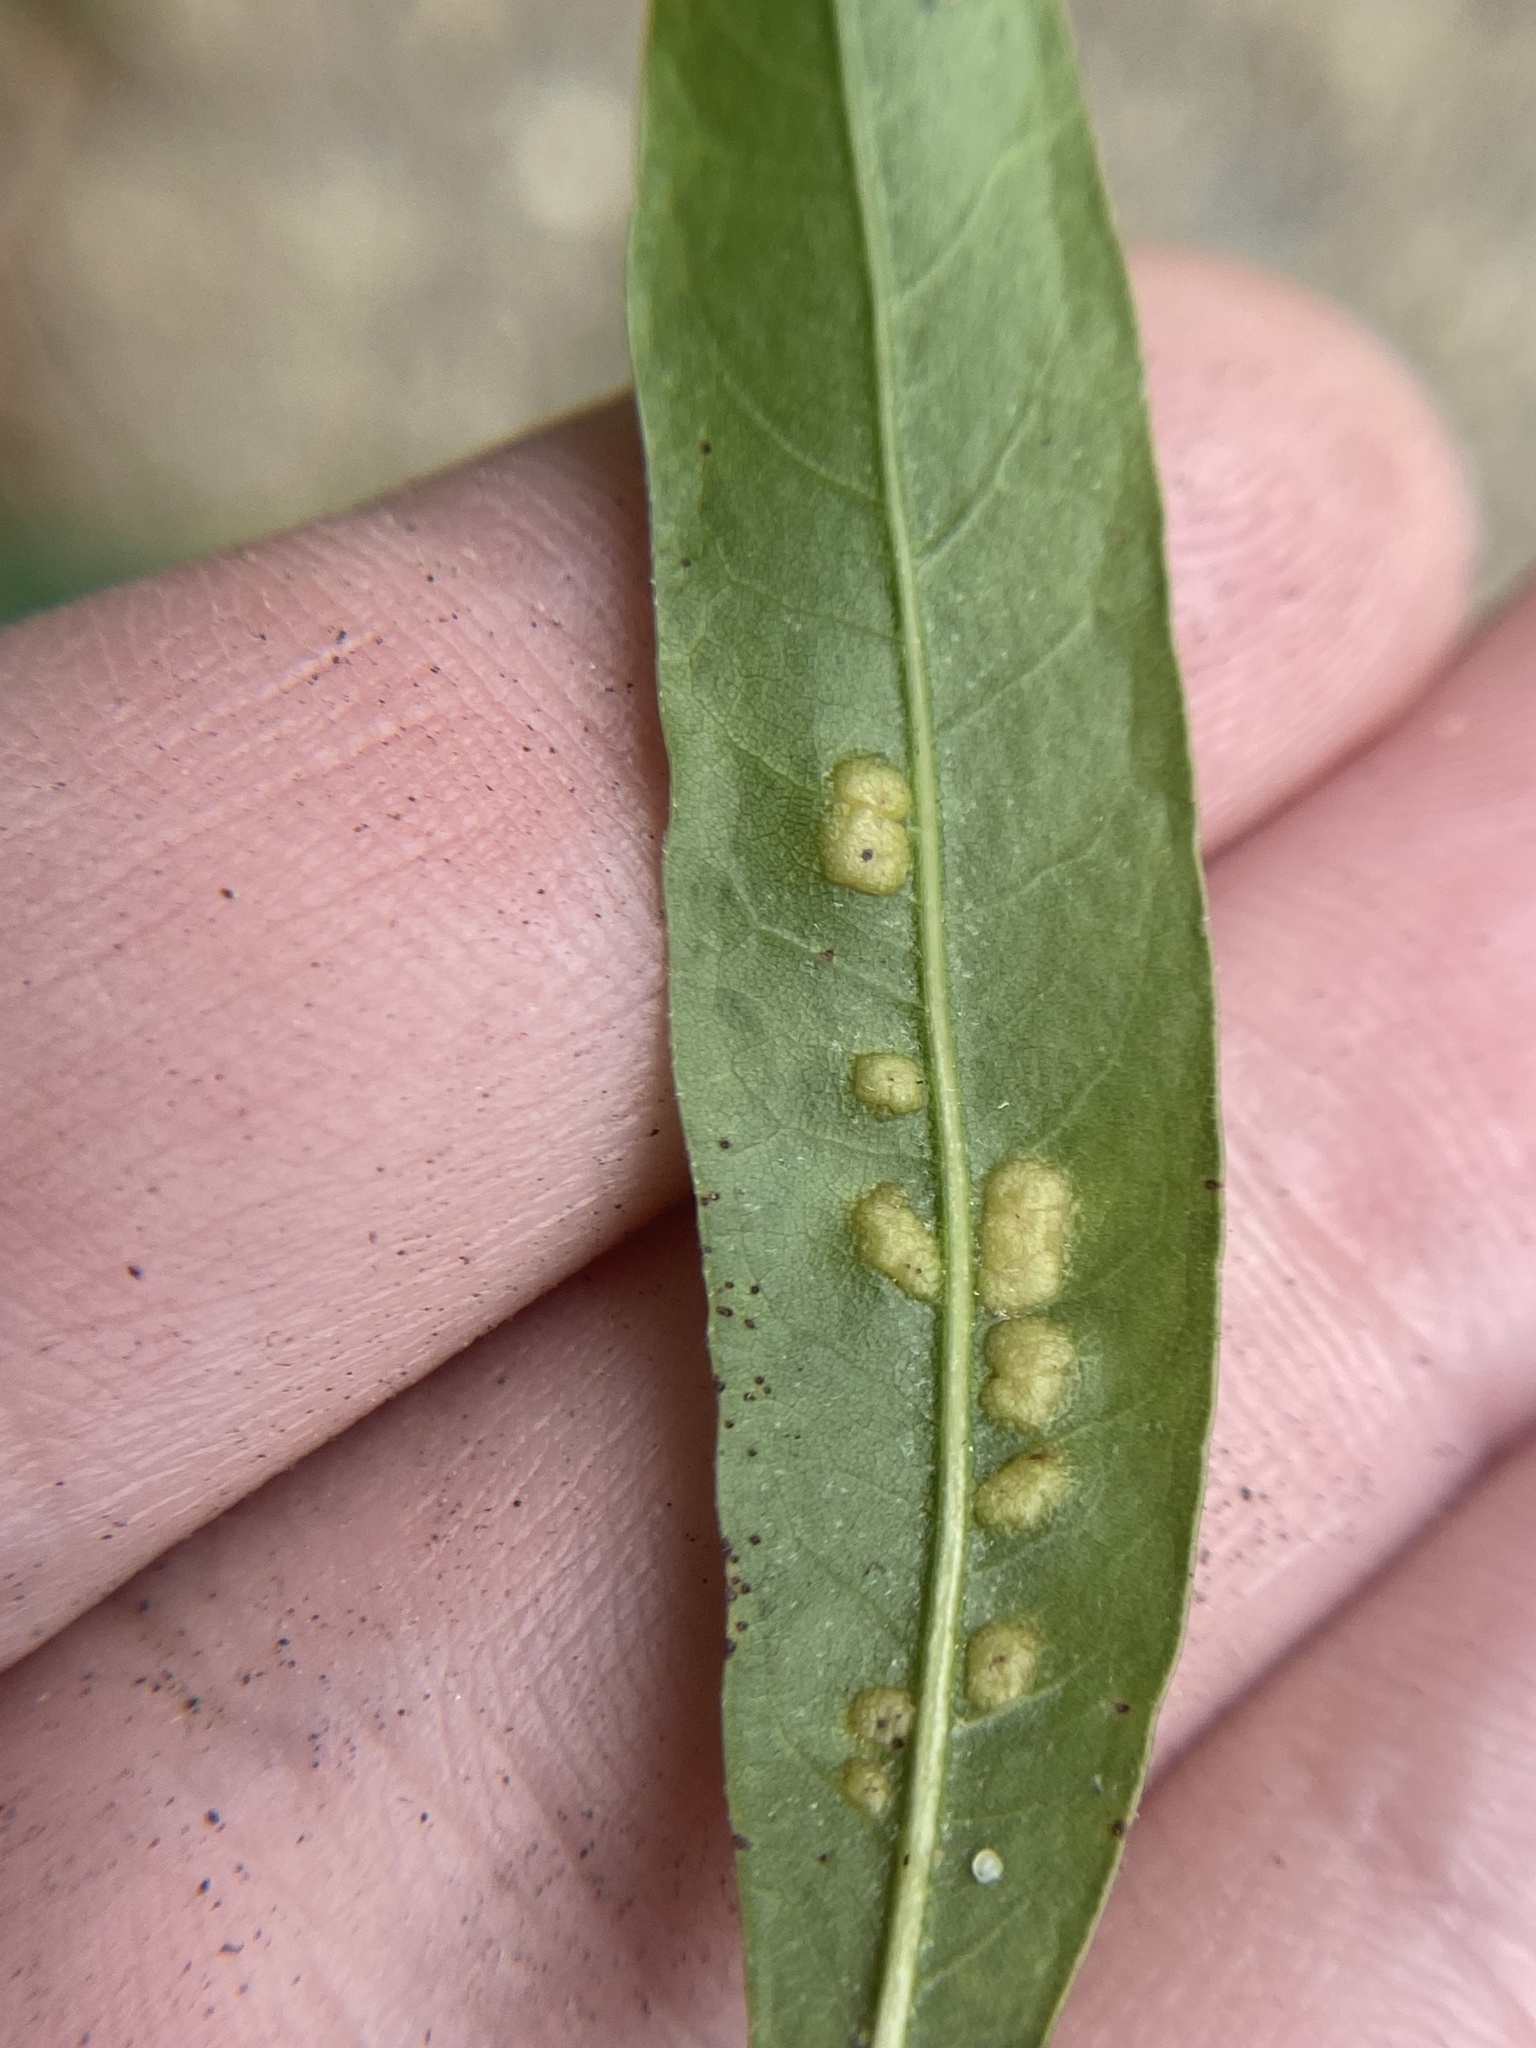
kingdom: Animalia
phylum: Arthropoda
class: Insecta
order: Diptera
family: Cecidomyiidae
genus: Polystepha
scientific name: Polystepha pilulae
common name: Oak leaf gall midge
